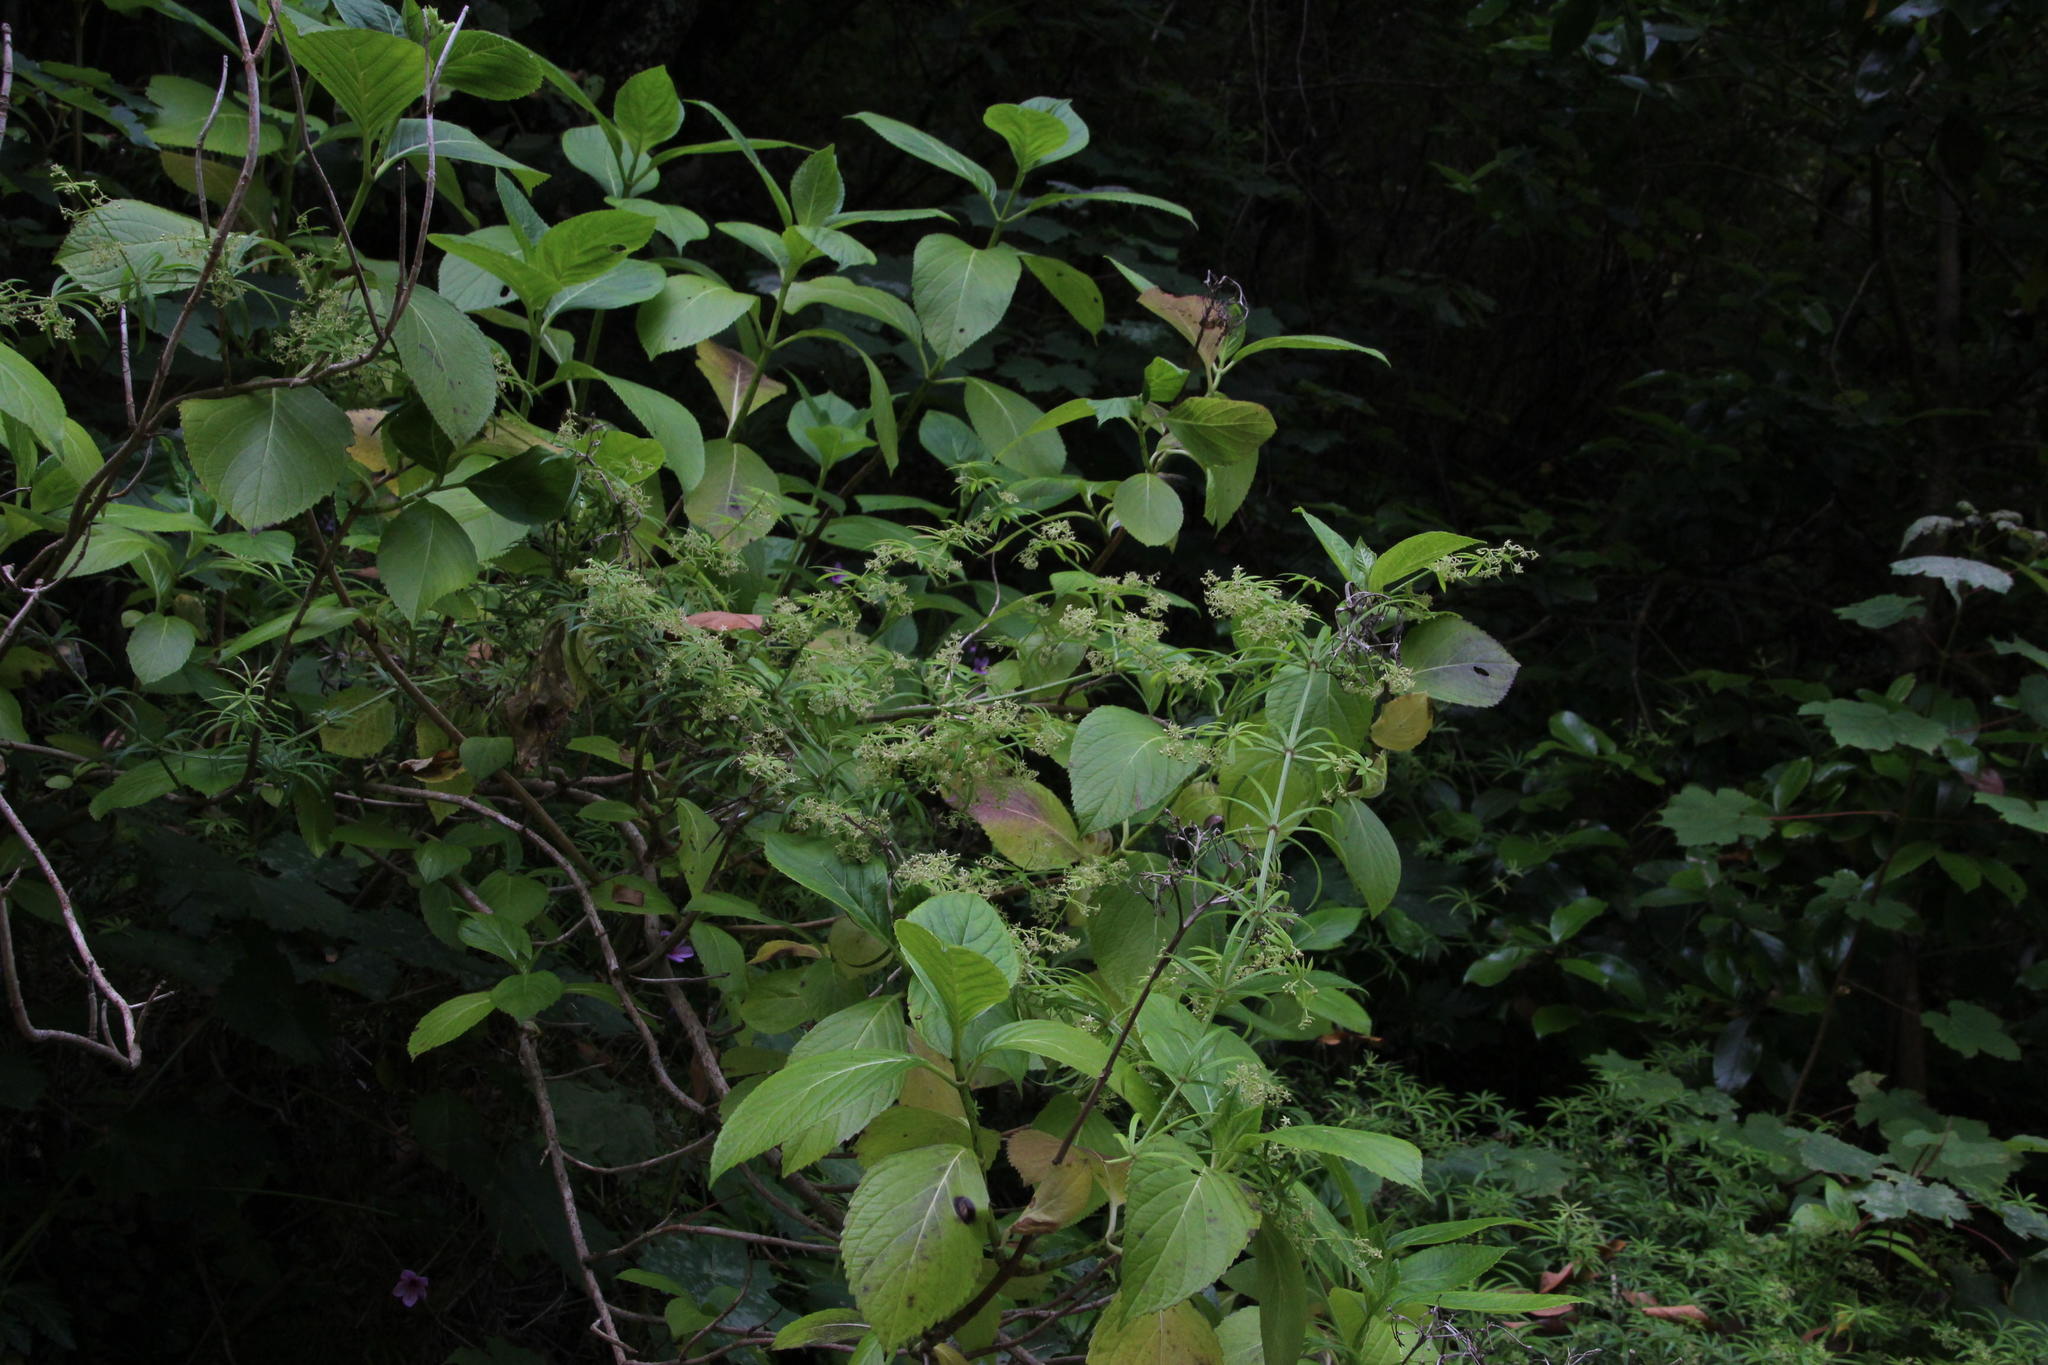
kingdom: Plantae
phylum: Tracheophyta
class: Magnoliopsida
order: Gentianales
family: Rubiaceae
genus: Rubia
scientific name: Rubia occidens
